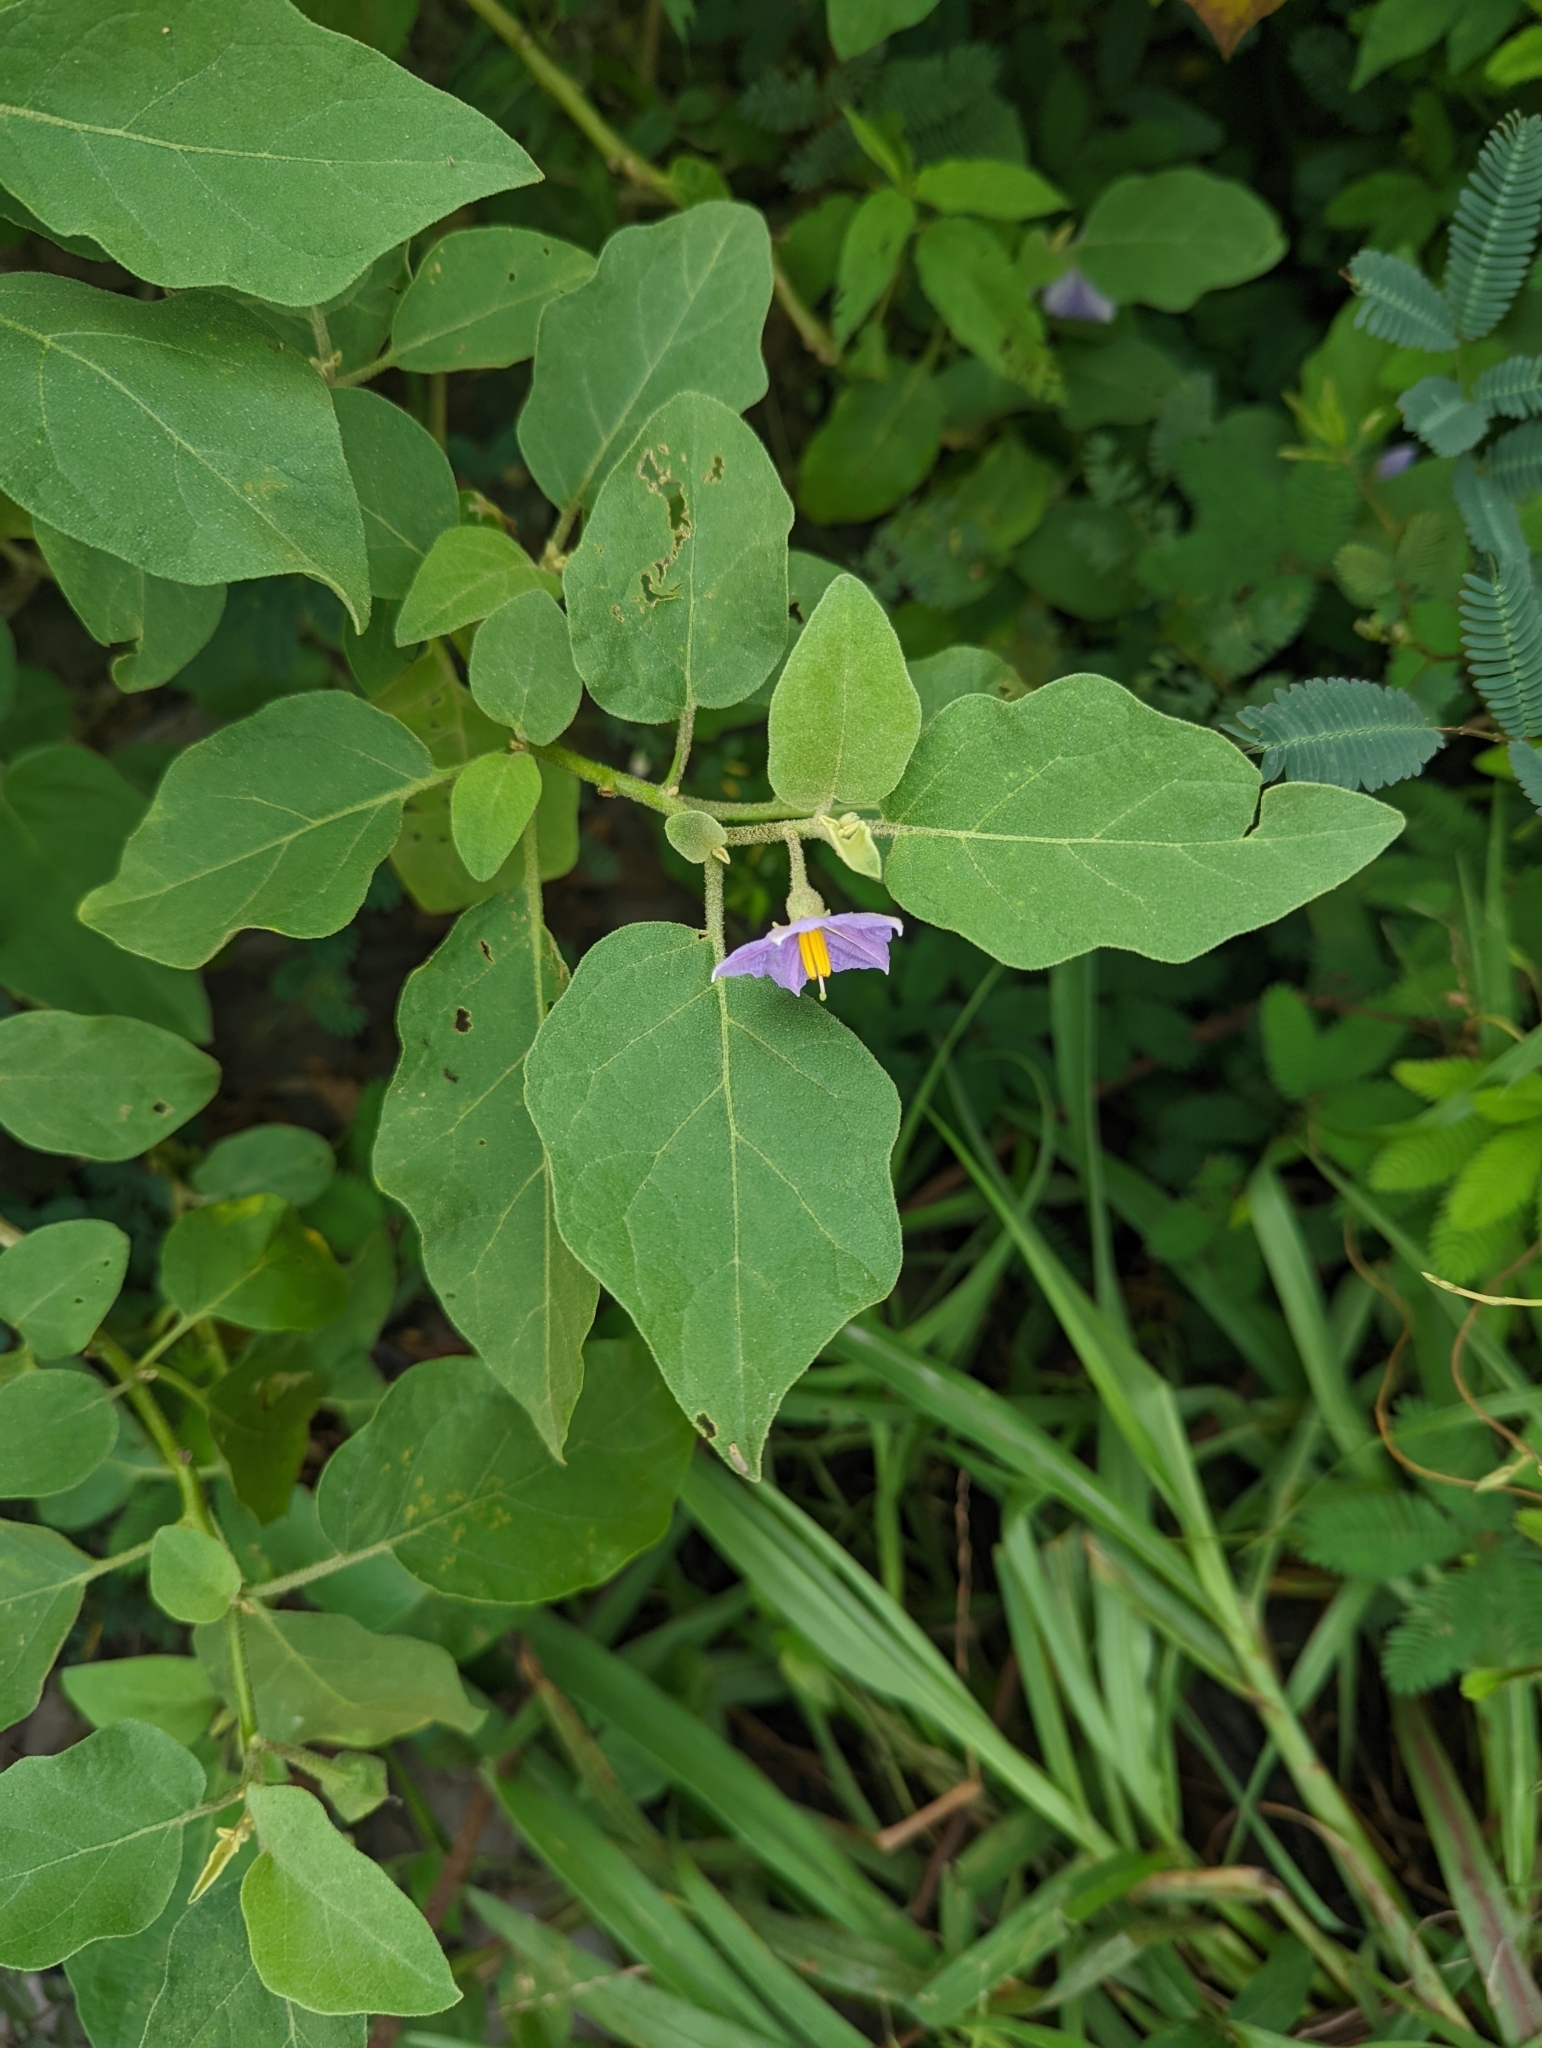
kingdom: Plantae
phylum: Tracheophyta
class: Magnoliopsida
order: Solanales
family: Solanaceae
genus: Solanum
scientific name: Solanum melongena
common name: Eggplant
